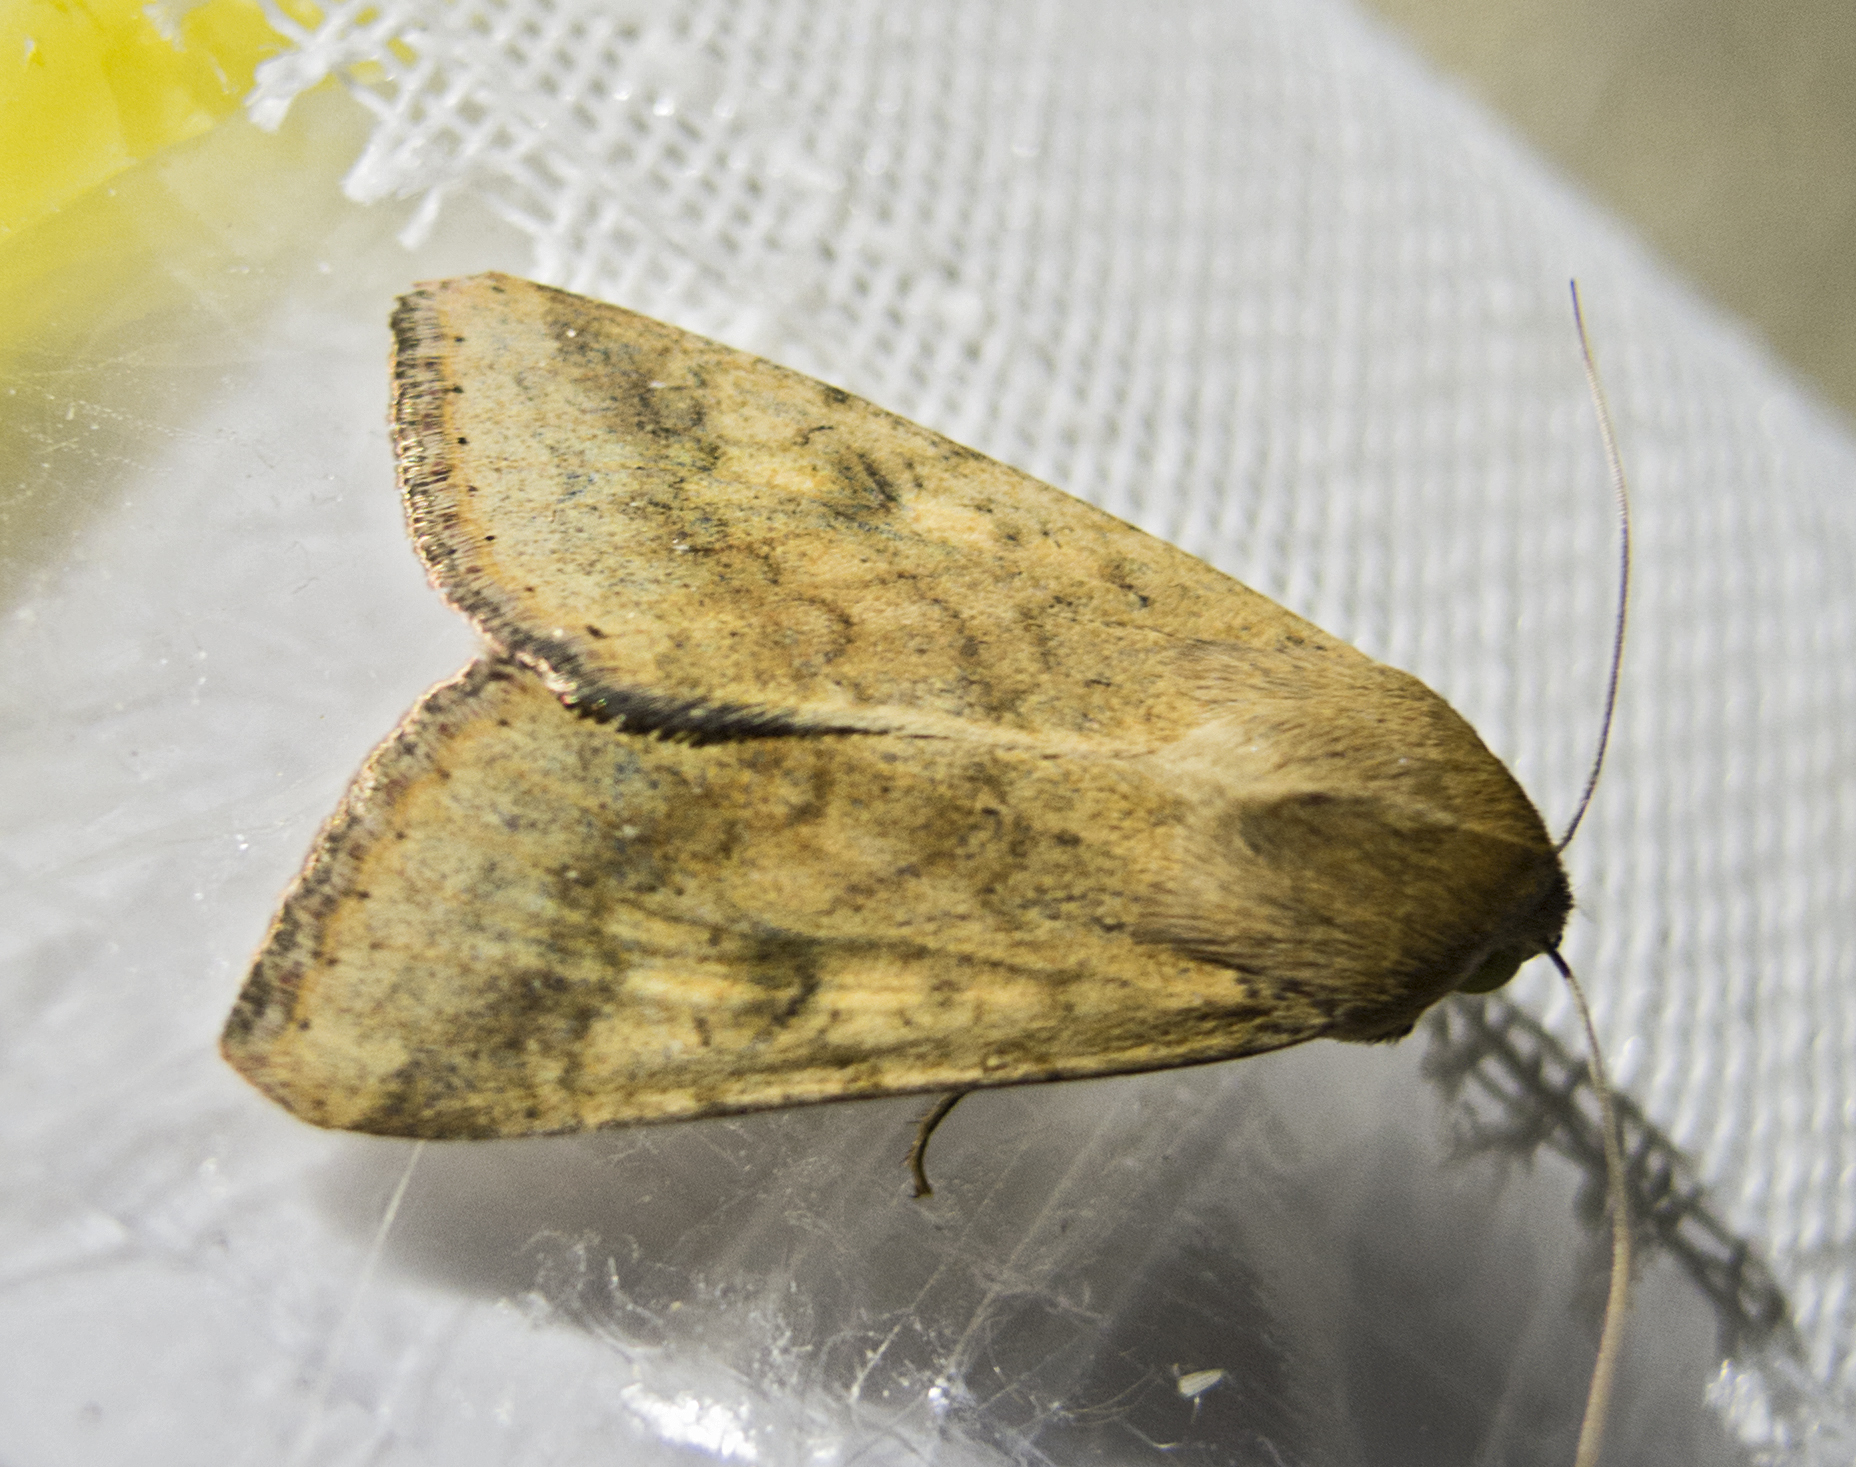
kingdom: Animalia
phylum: Arthropoda
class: Insecta
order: Lepidoptera
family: Noctuidae
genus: Helicoverpa
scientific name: Helicoverpa armigera
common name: Cotton bollworm
